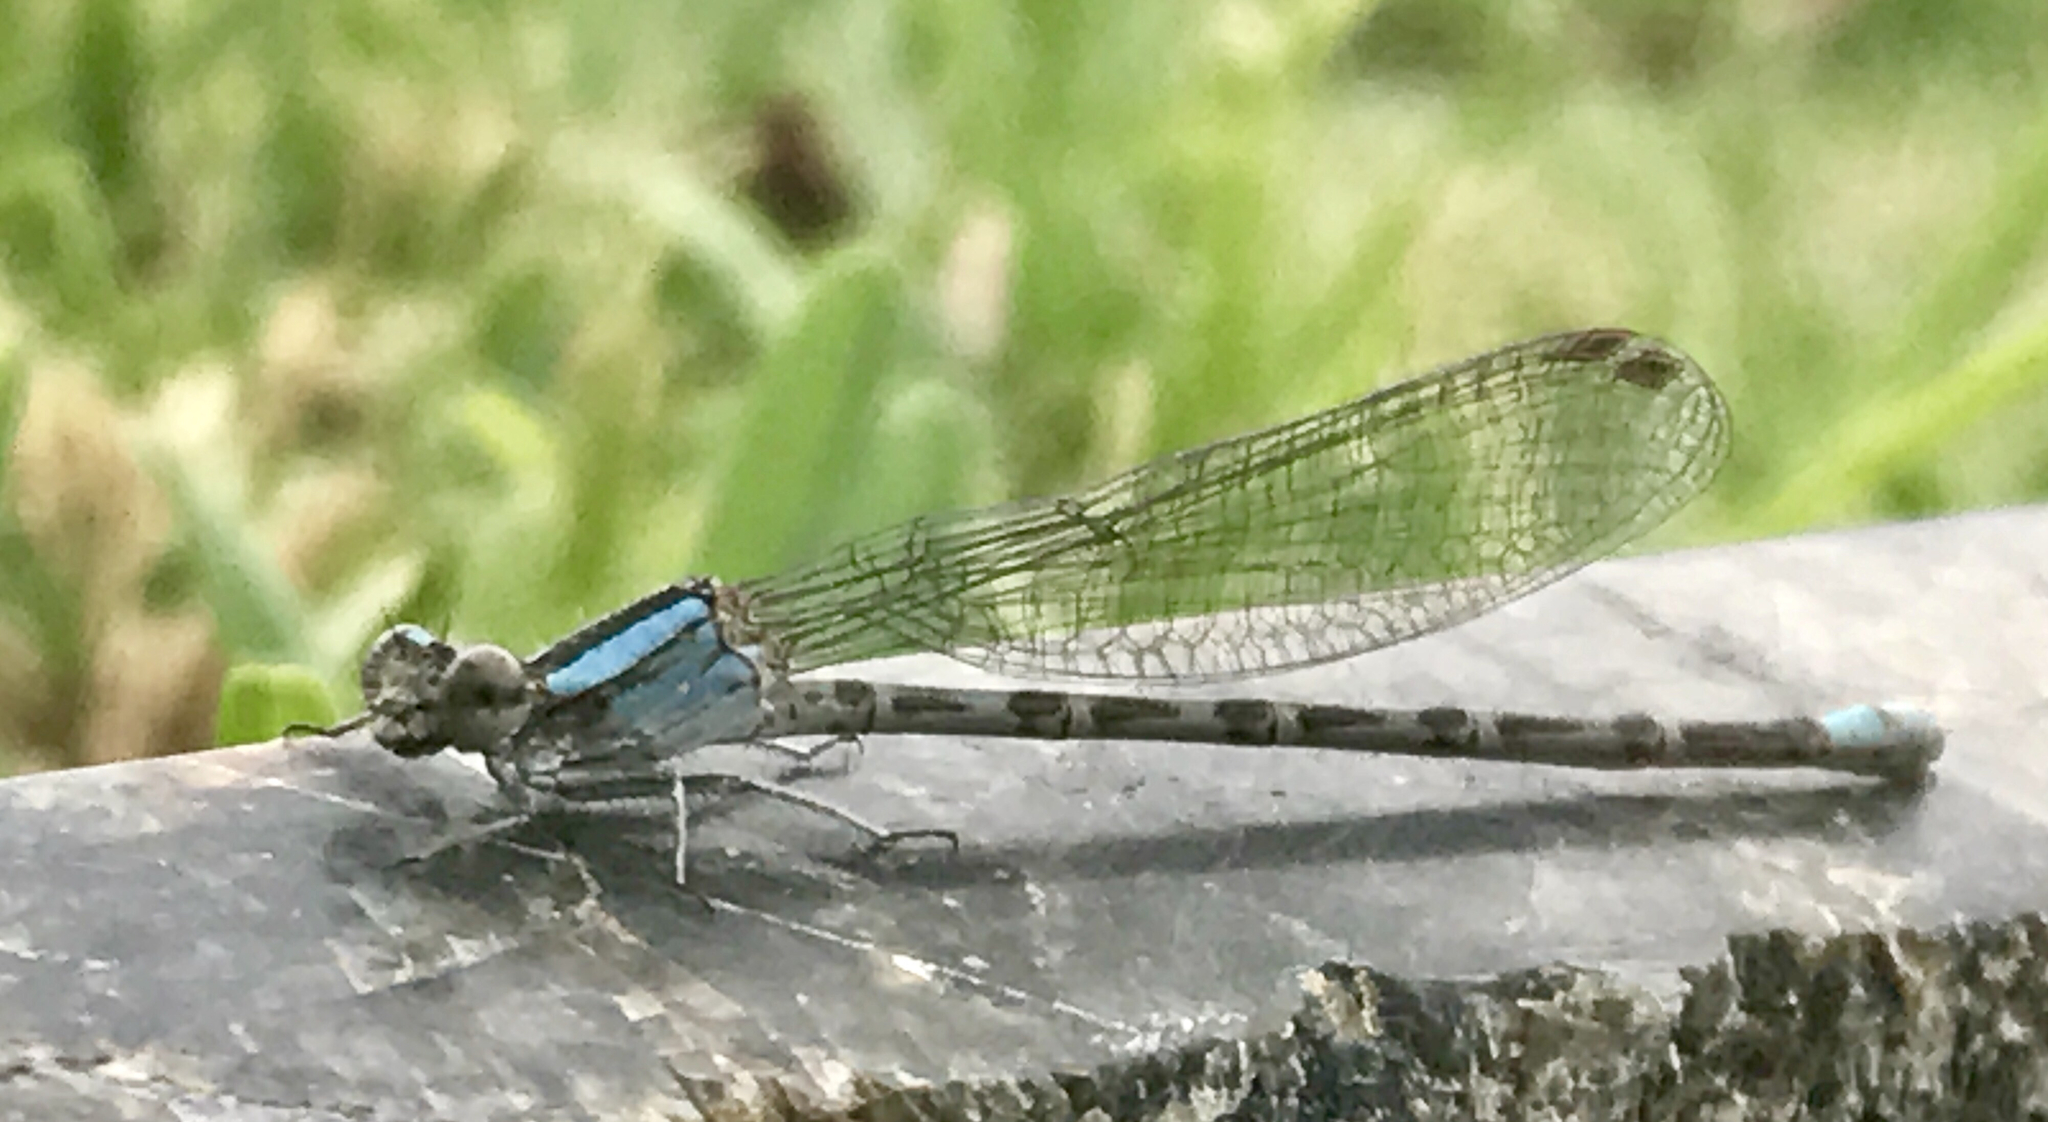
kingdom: Animalia
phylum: Arthropoda
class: Insecta
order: Odonata
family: Coenagrionidae
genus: Argia
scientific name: Argia immunda
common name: Kiowa dancer
